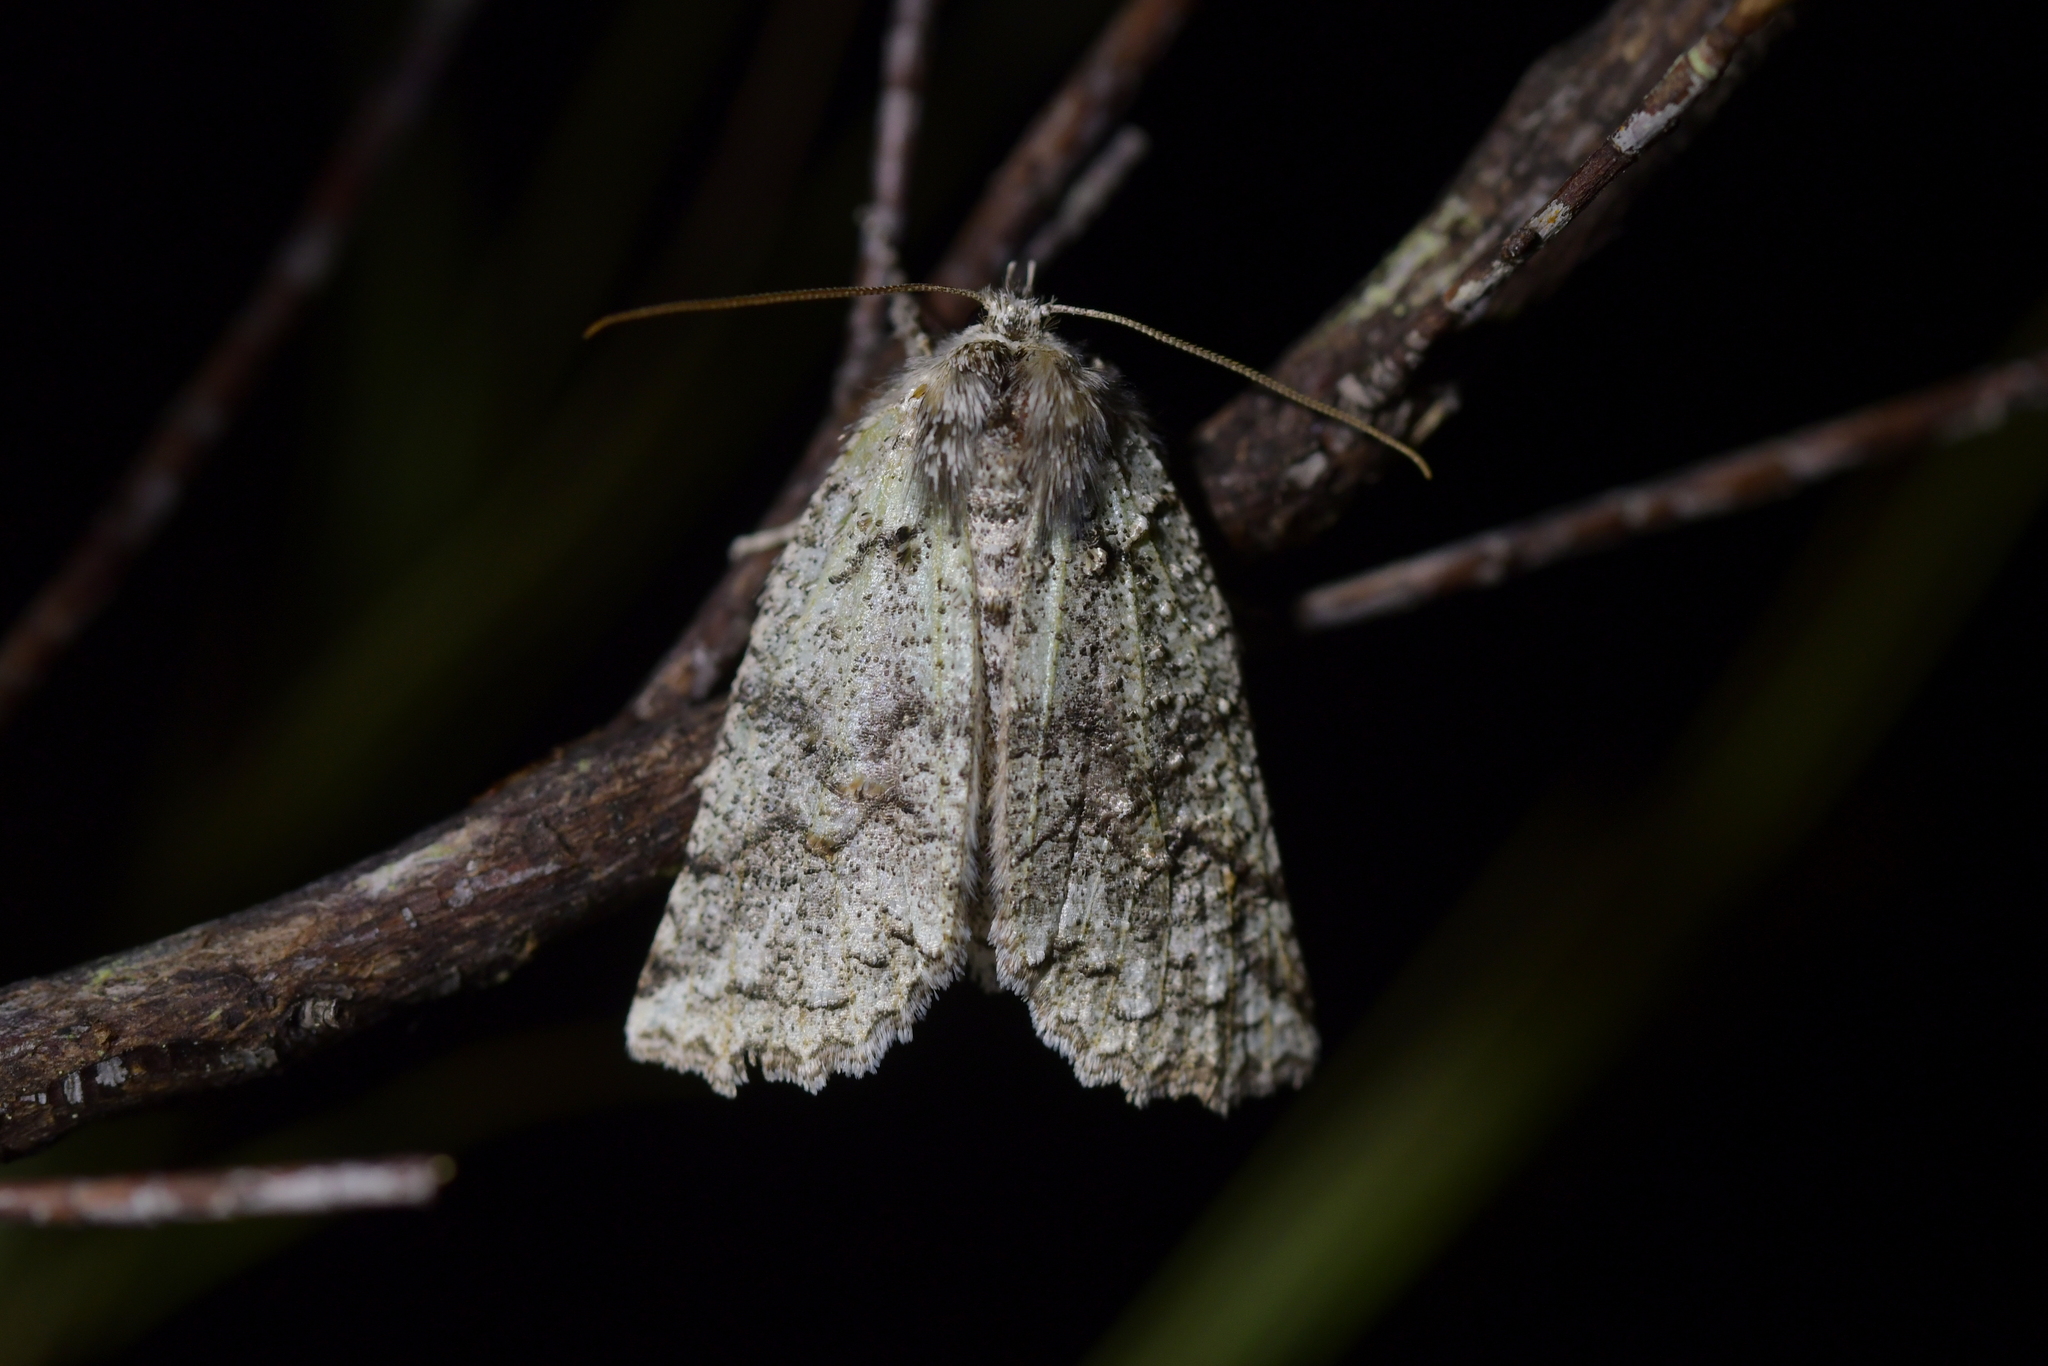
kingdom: Animalia
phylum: Arthropoda
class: Insecta
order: Lepidoptera
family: Geometridae
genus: Declana
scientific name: Declana floccosa
